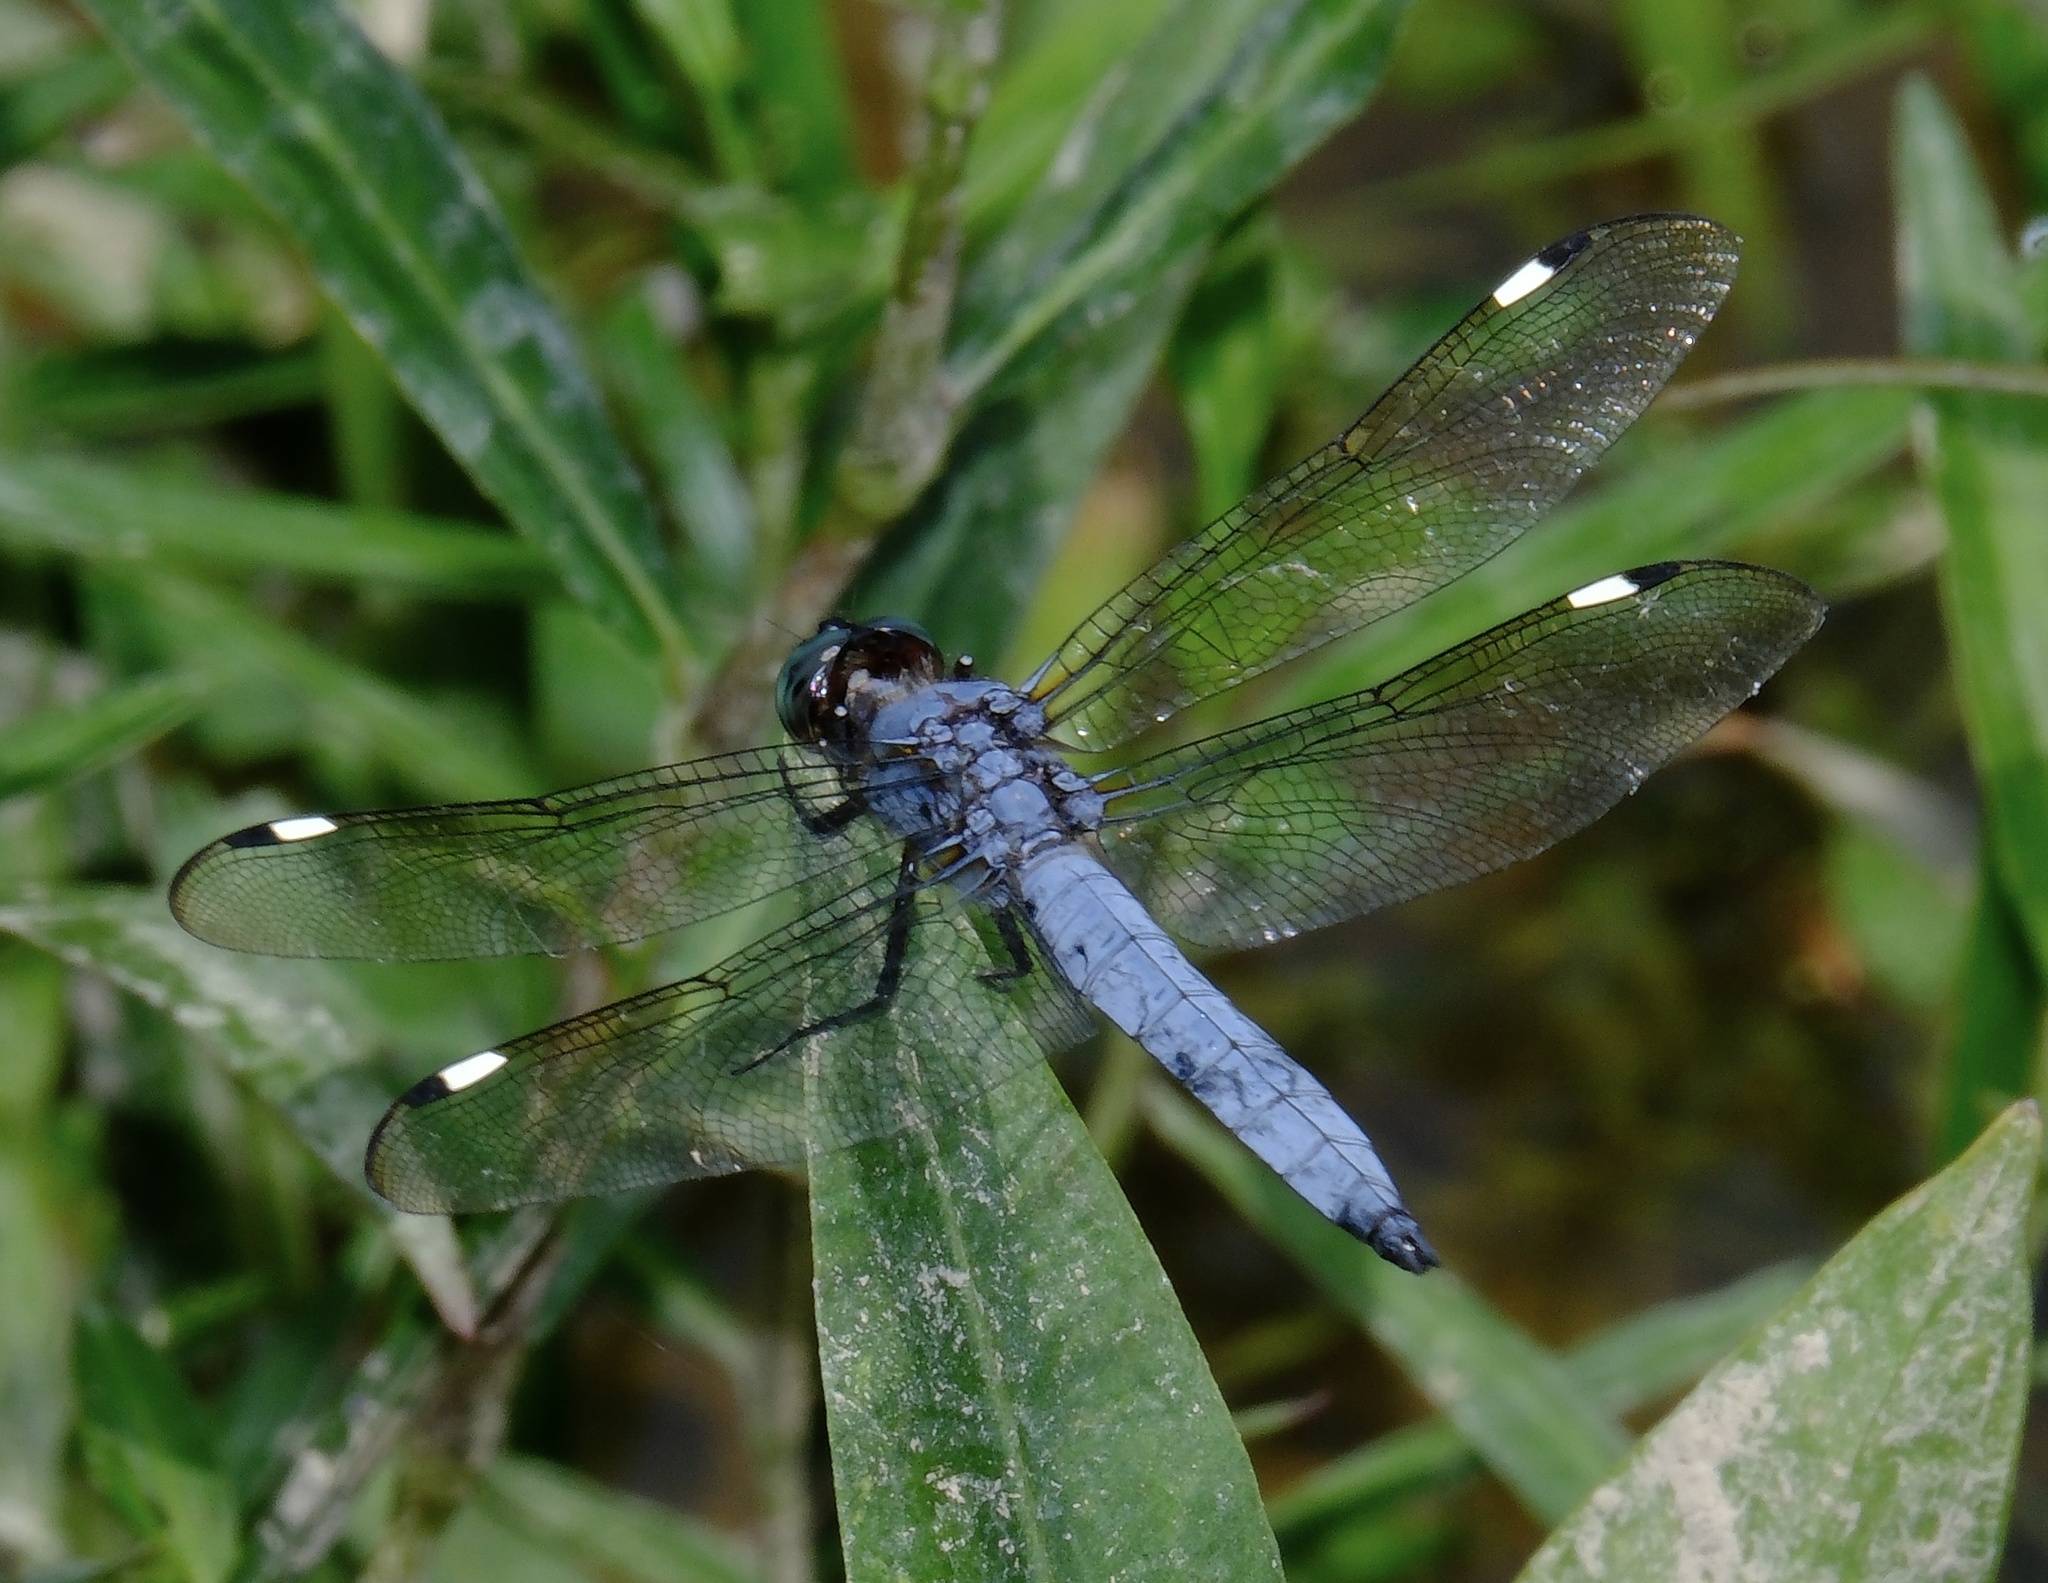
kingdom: Animalia
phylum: Arthropoda
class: Insecta
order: Odonata
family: Libellulidae
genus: Libellula
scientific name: Libellula cyanea
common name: Spangled skimmer
